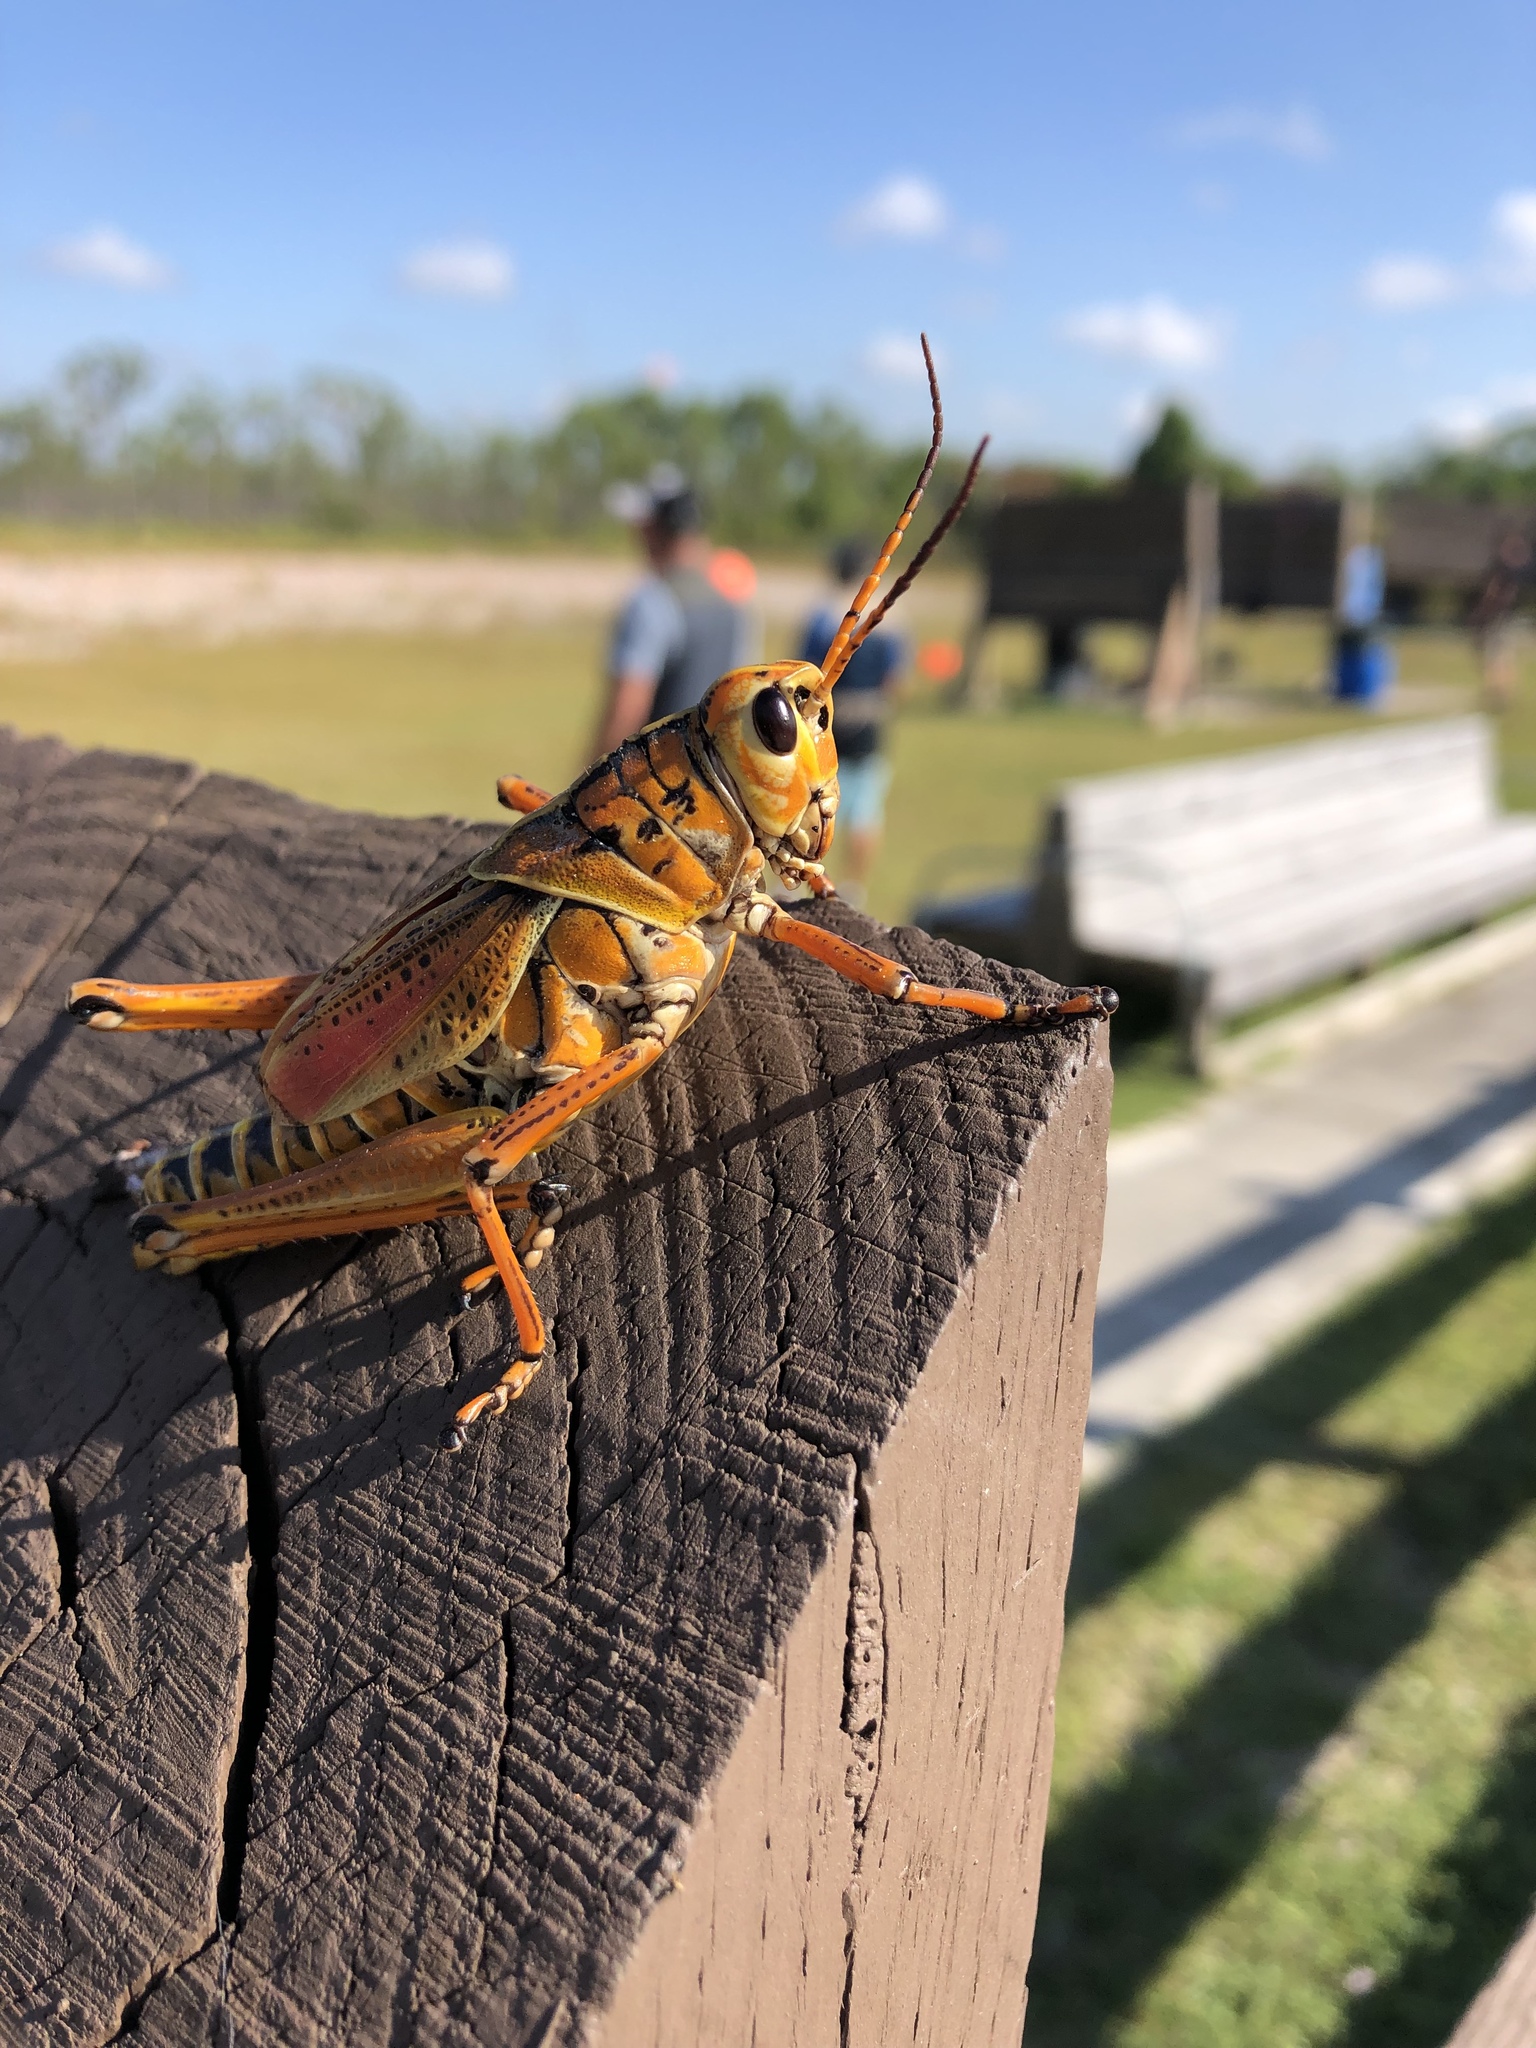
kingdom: Animalia
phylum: Arthropoda
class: Insecta
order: Orthoptera
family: Romaleidae
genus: Romalea
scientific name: Romalea microptera
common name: Eastern lubber grasshopper
